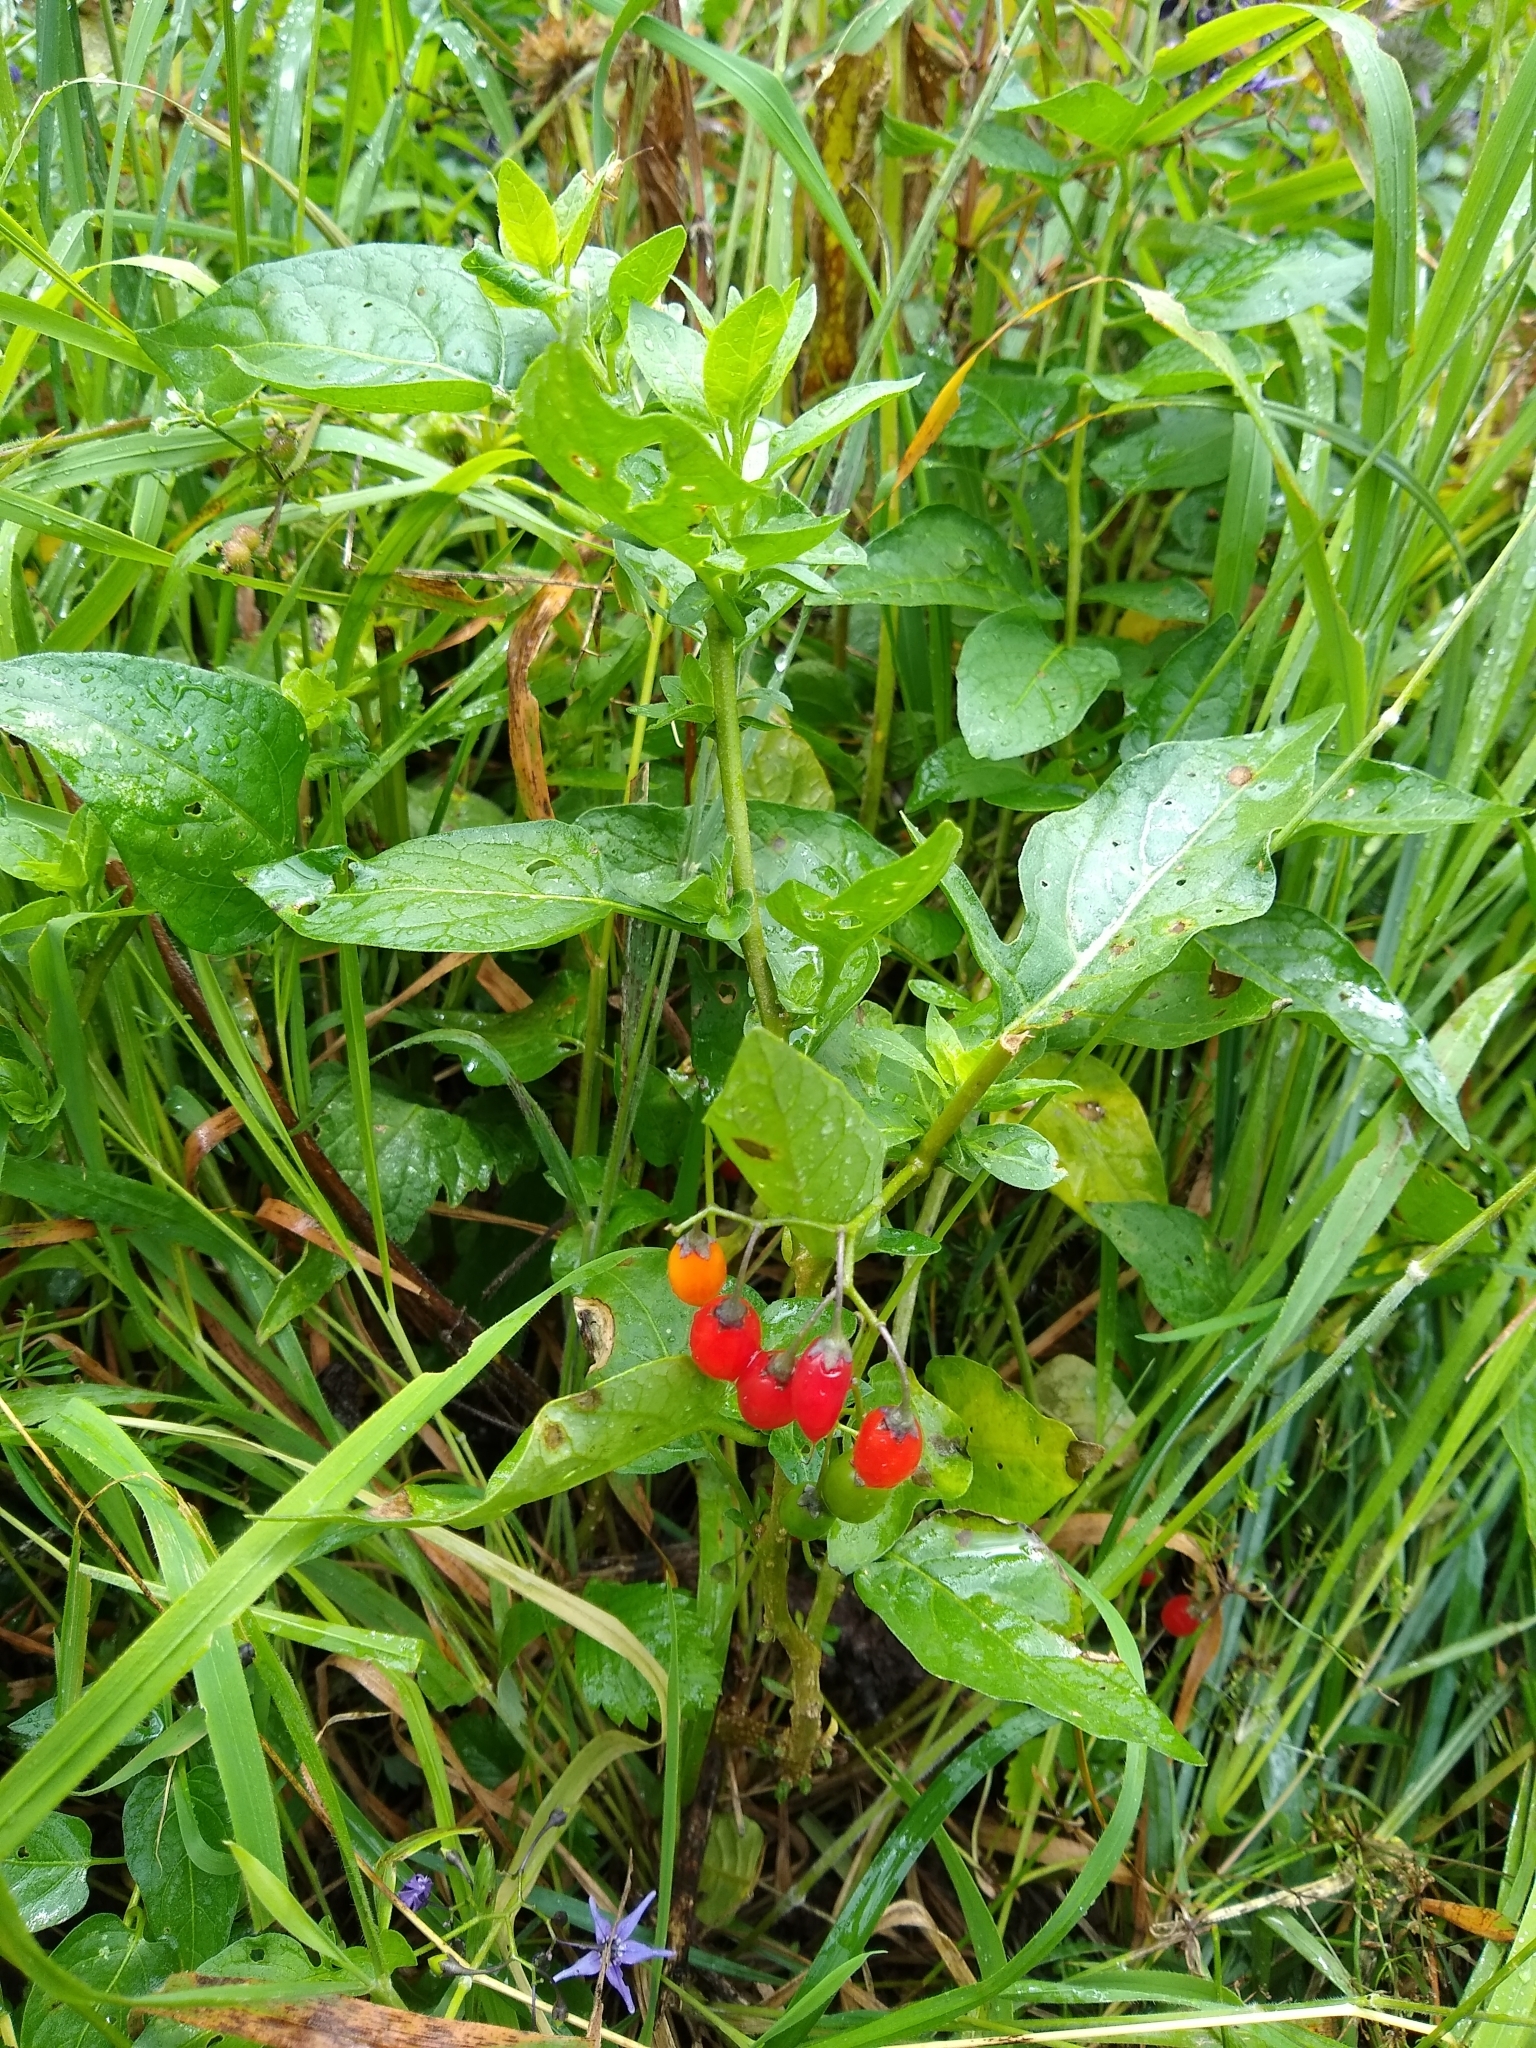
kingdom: Plantae
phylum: Tracheophyta
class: Magnoliopsida
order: Solanales
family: Solanaceae
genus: Solanum
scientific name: Solanum dulcamara
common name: Climbing nightshade
